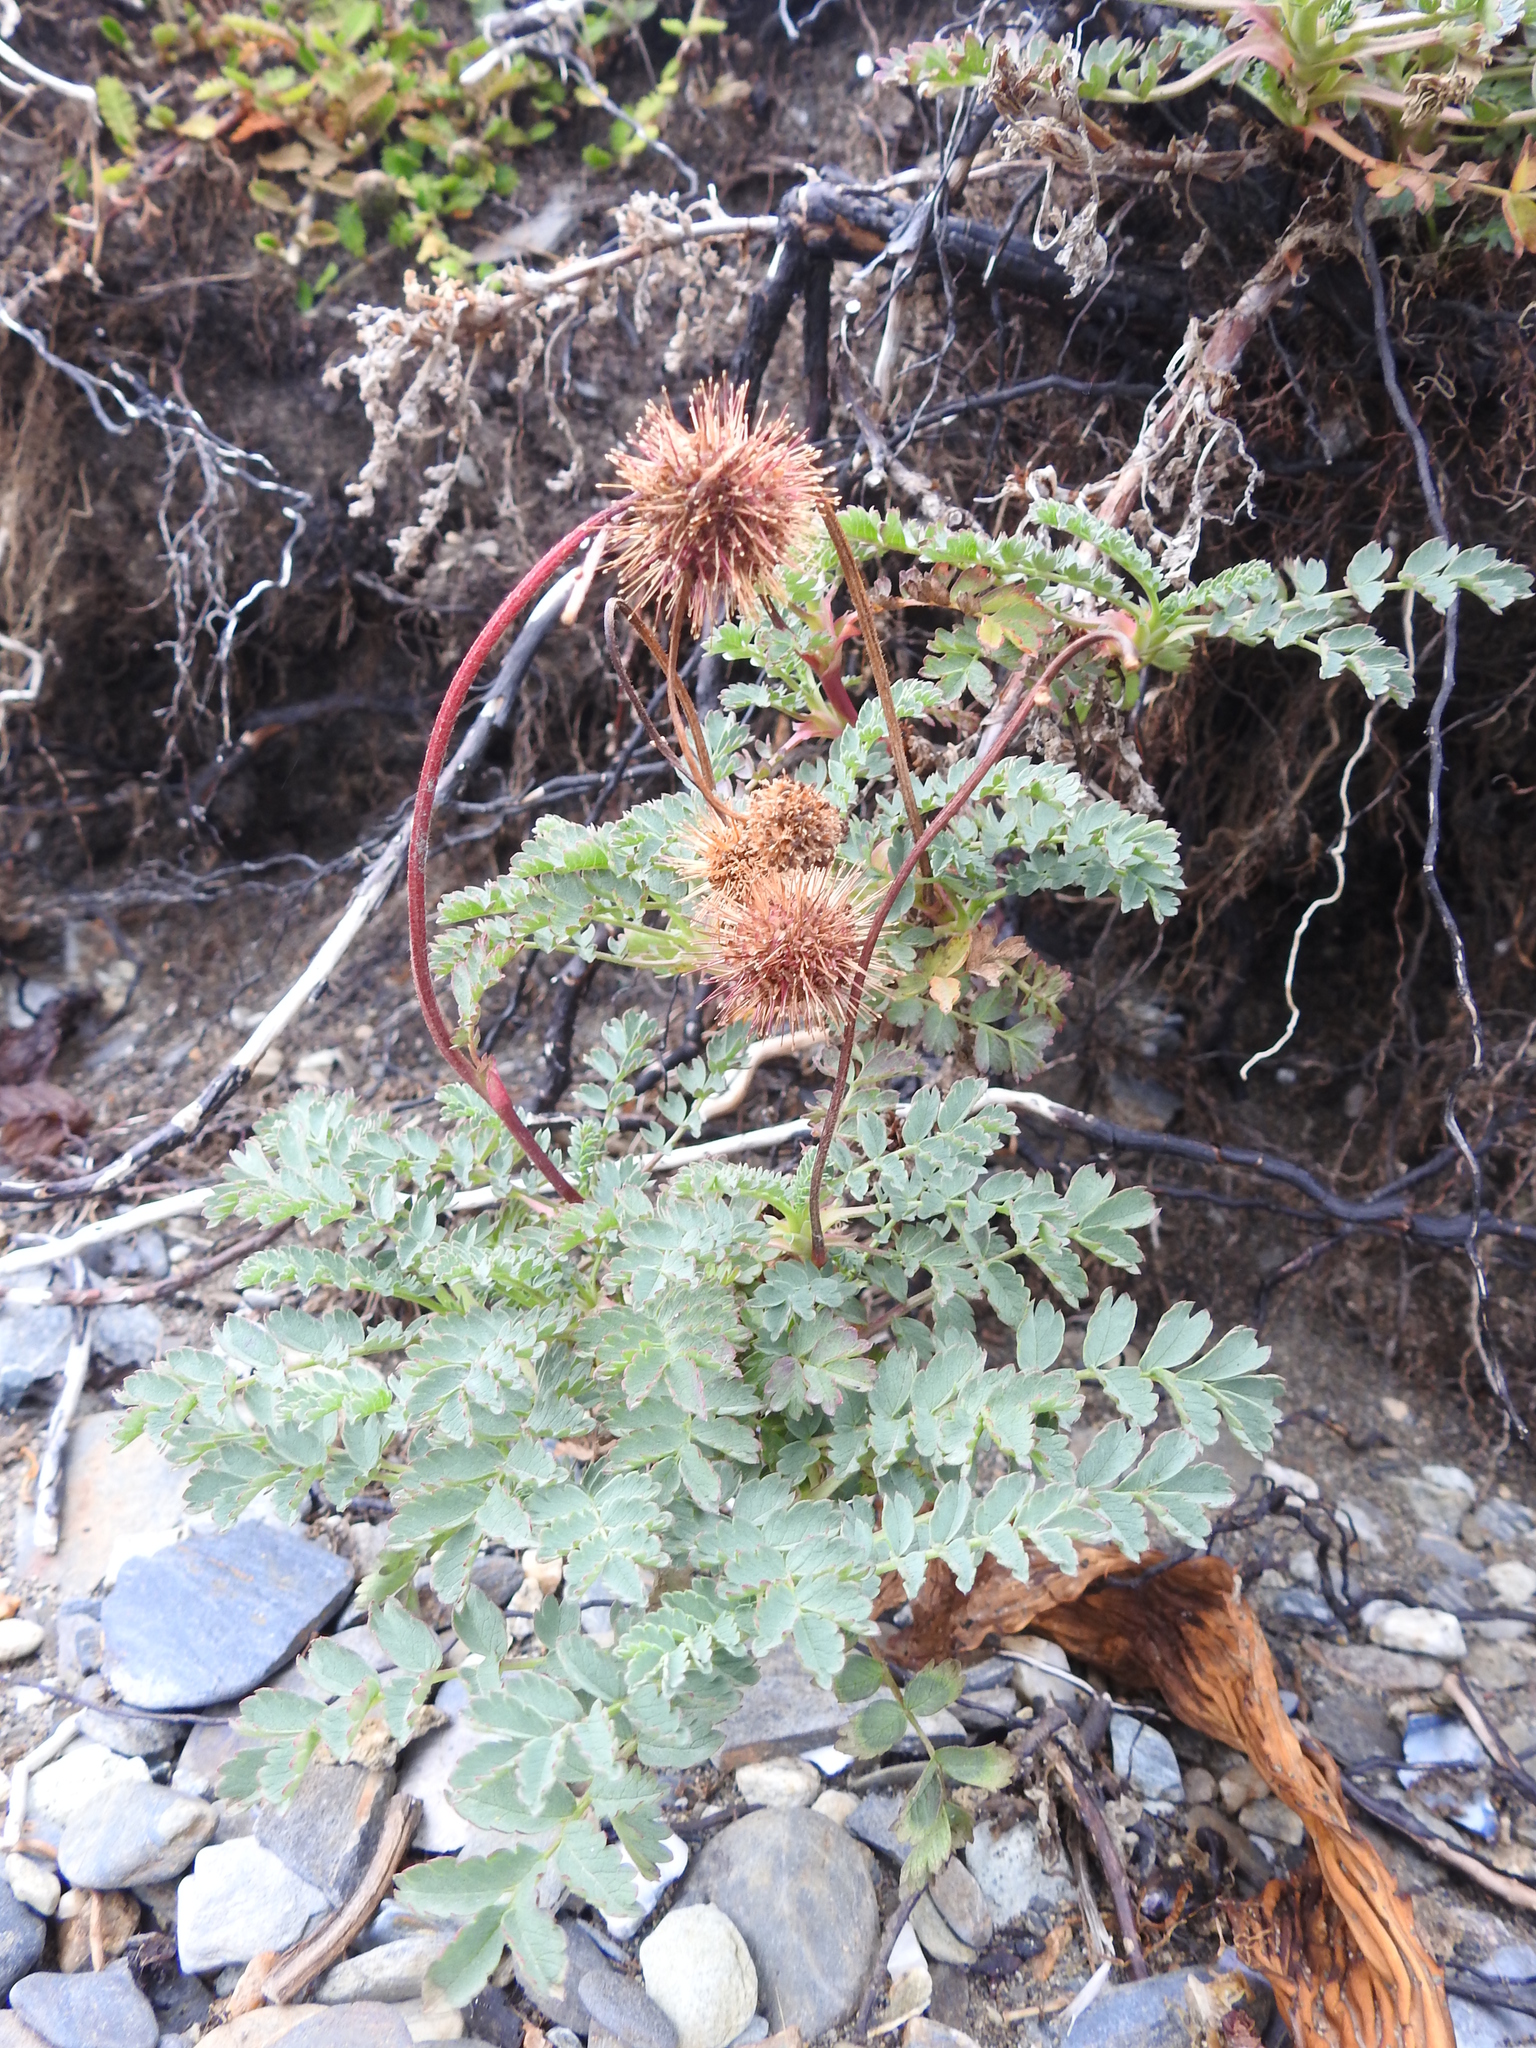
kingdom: Plantae
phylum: Tracheophyta
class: Magnoliopsida
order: Rosales
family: Rosaceae
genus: Acaena
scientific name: Acaena magellanica
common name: New zealand burr
